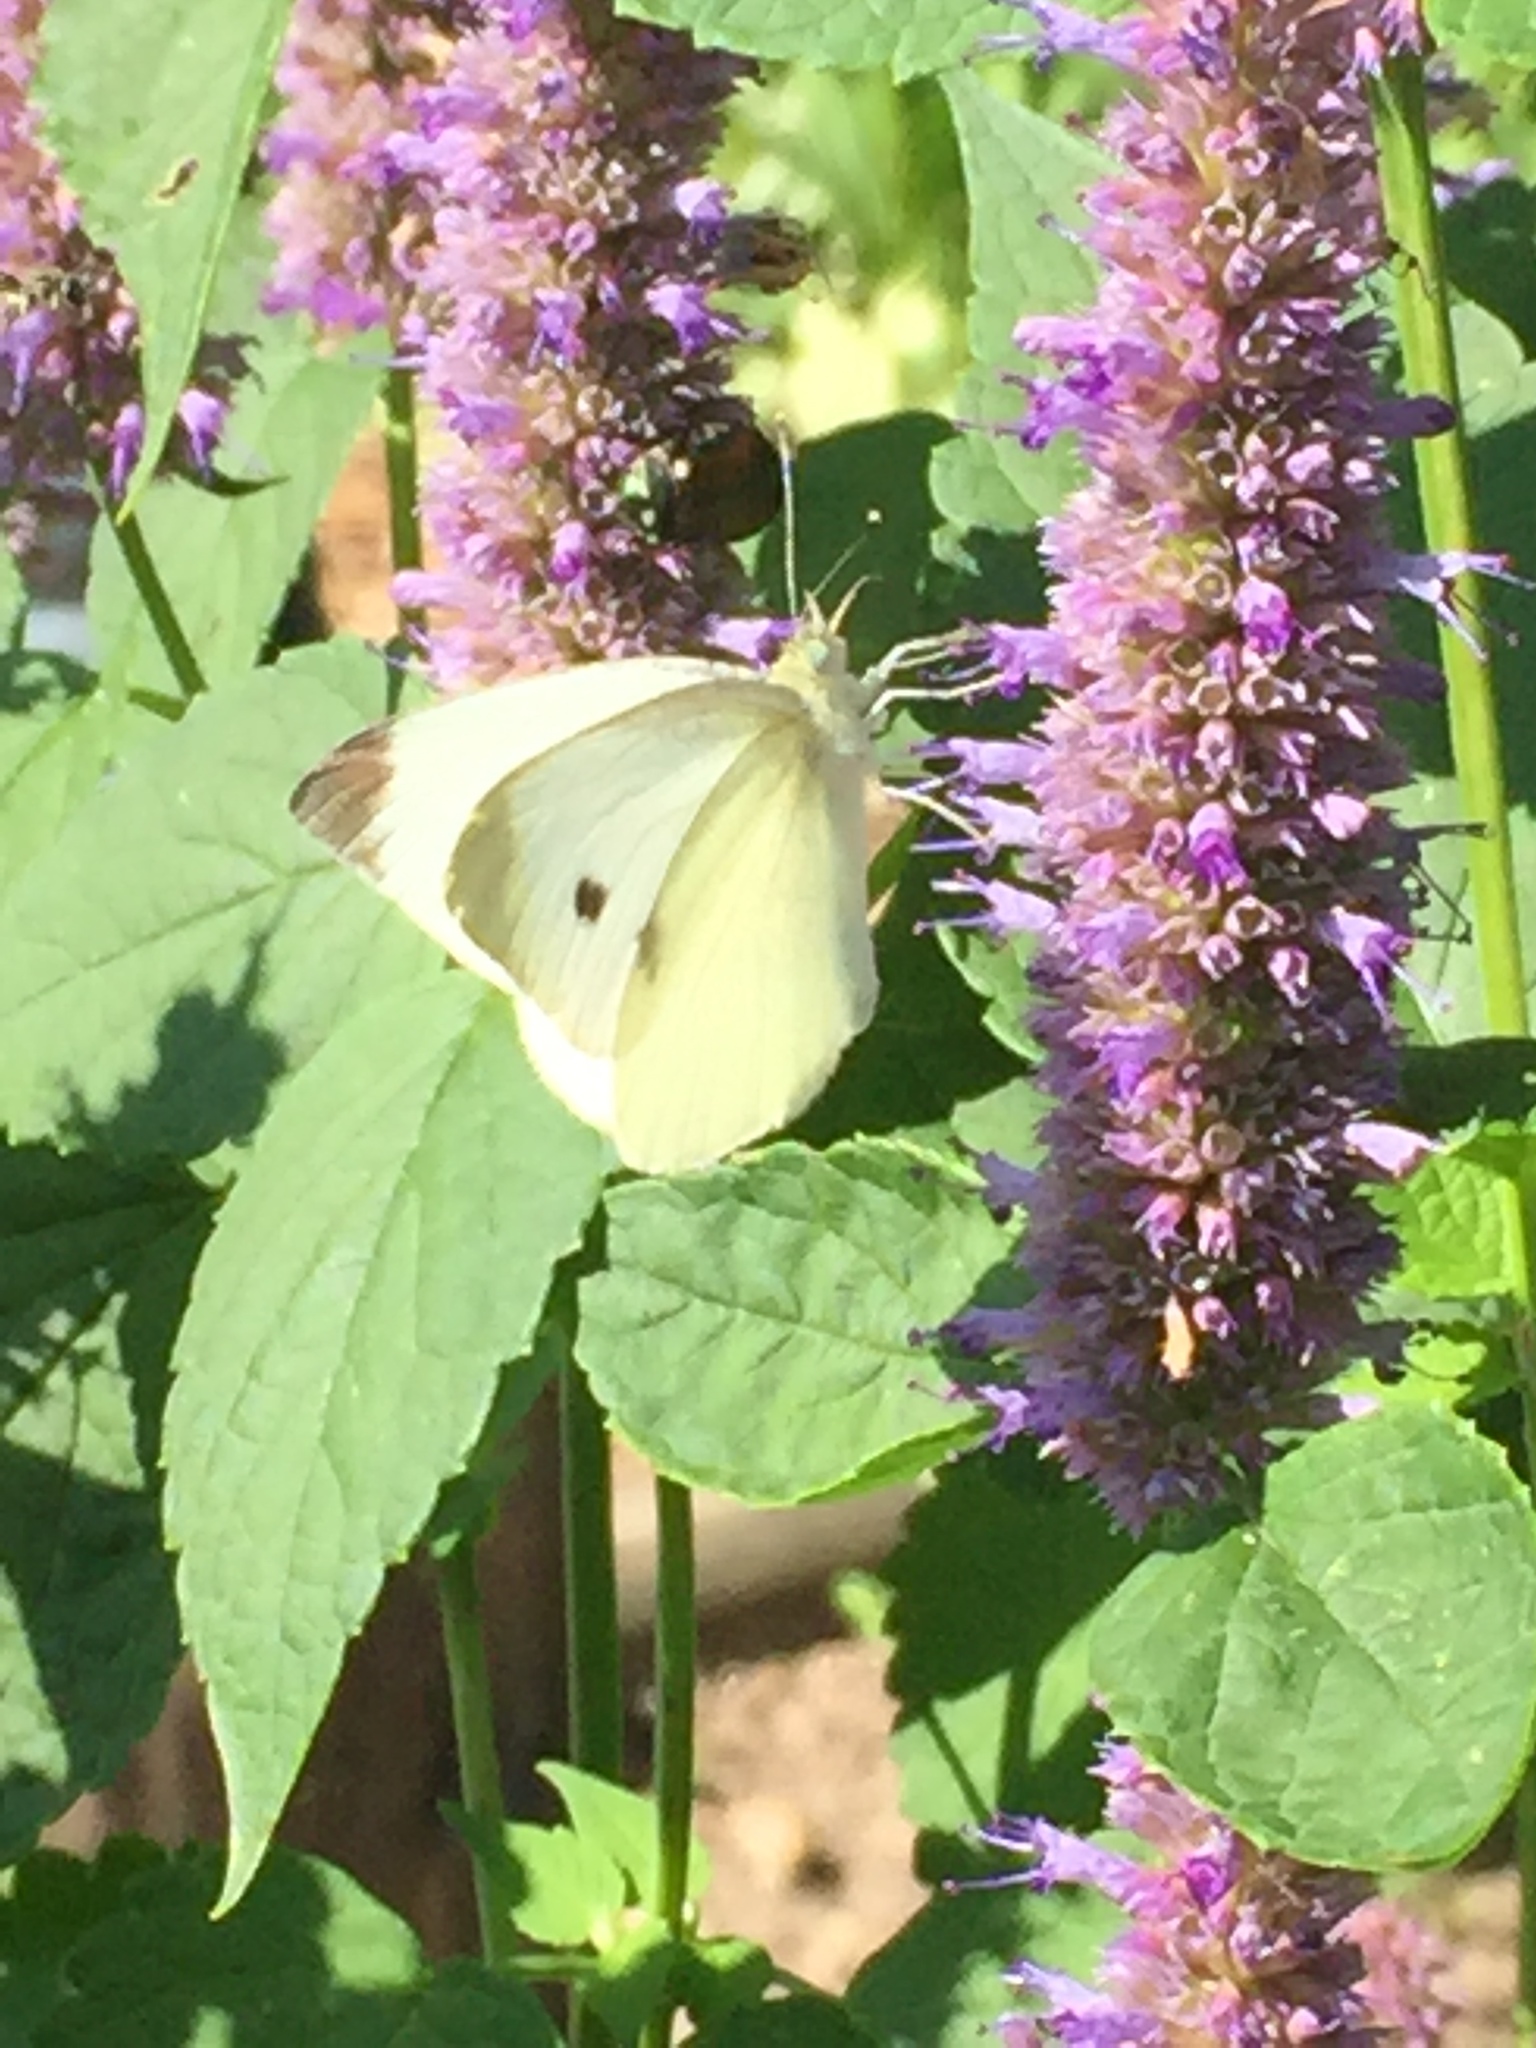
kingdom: Animalia
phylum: Arthropoda
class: Insecta
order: Lepidoptera
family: Pieridae
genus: Pieris
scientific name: Pieris rapae
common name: Small white
